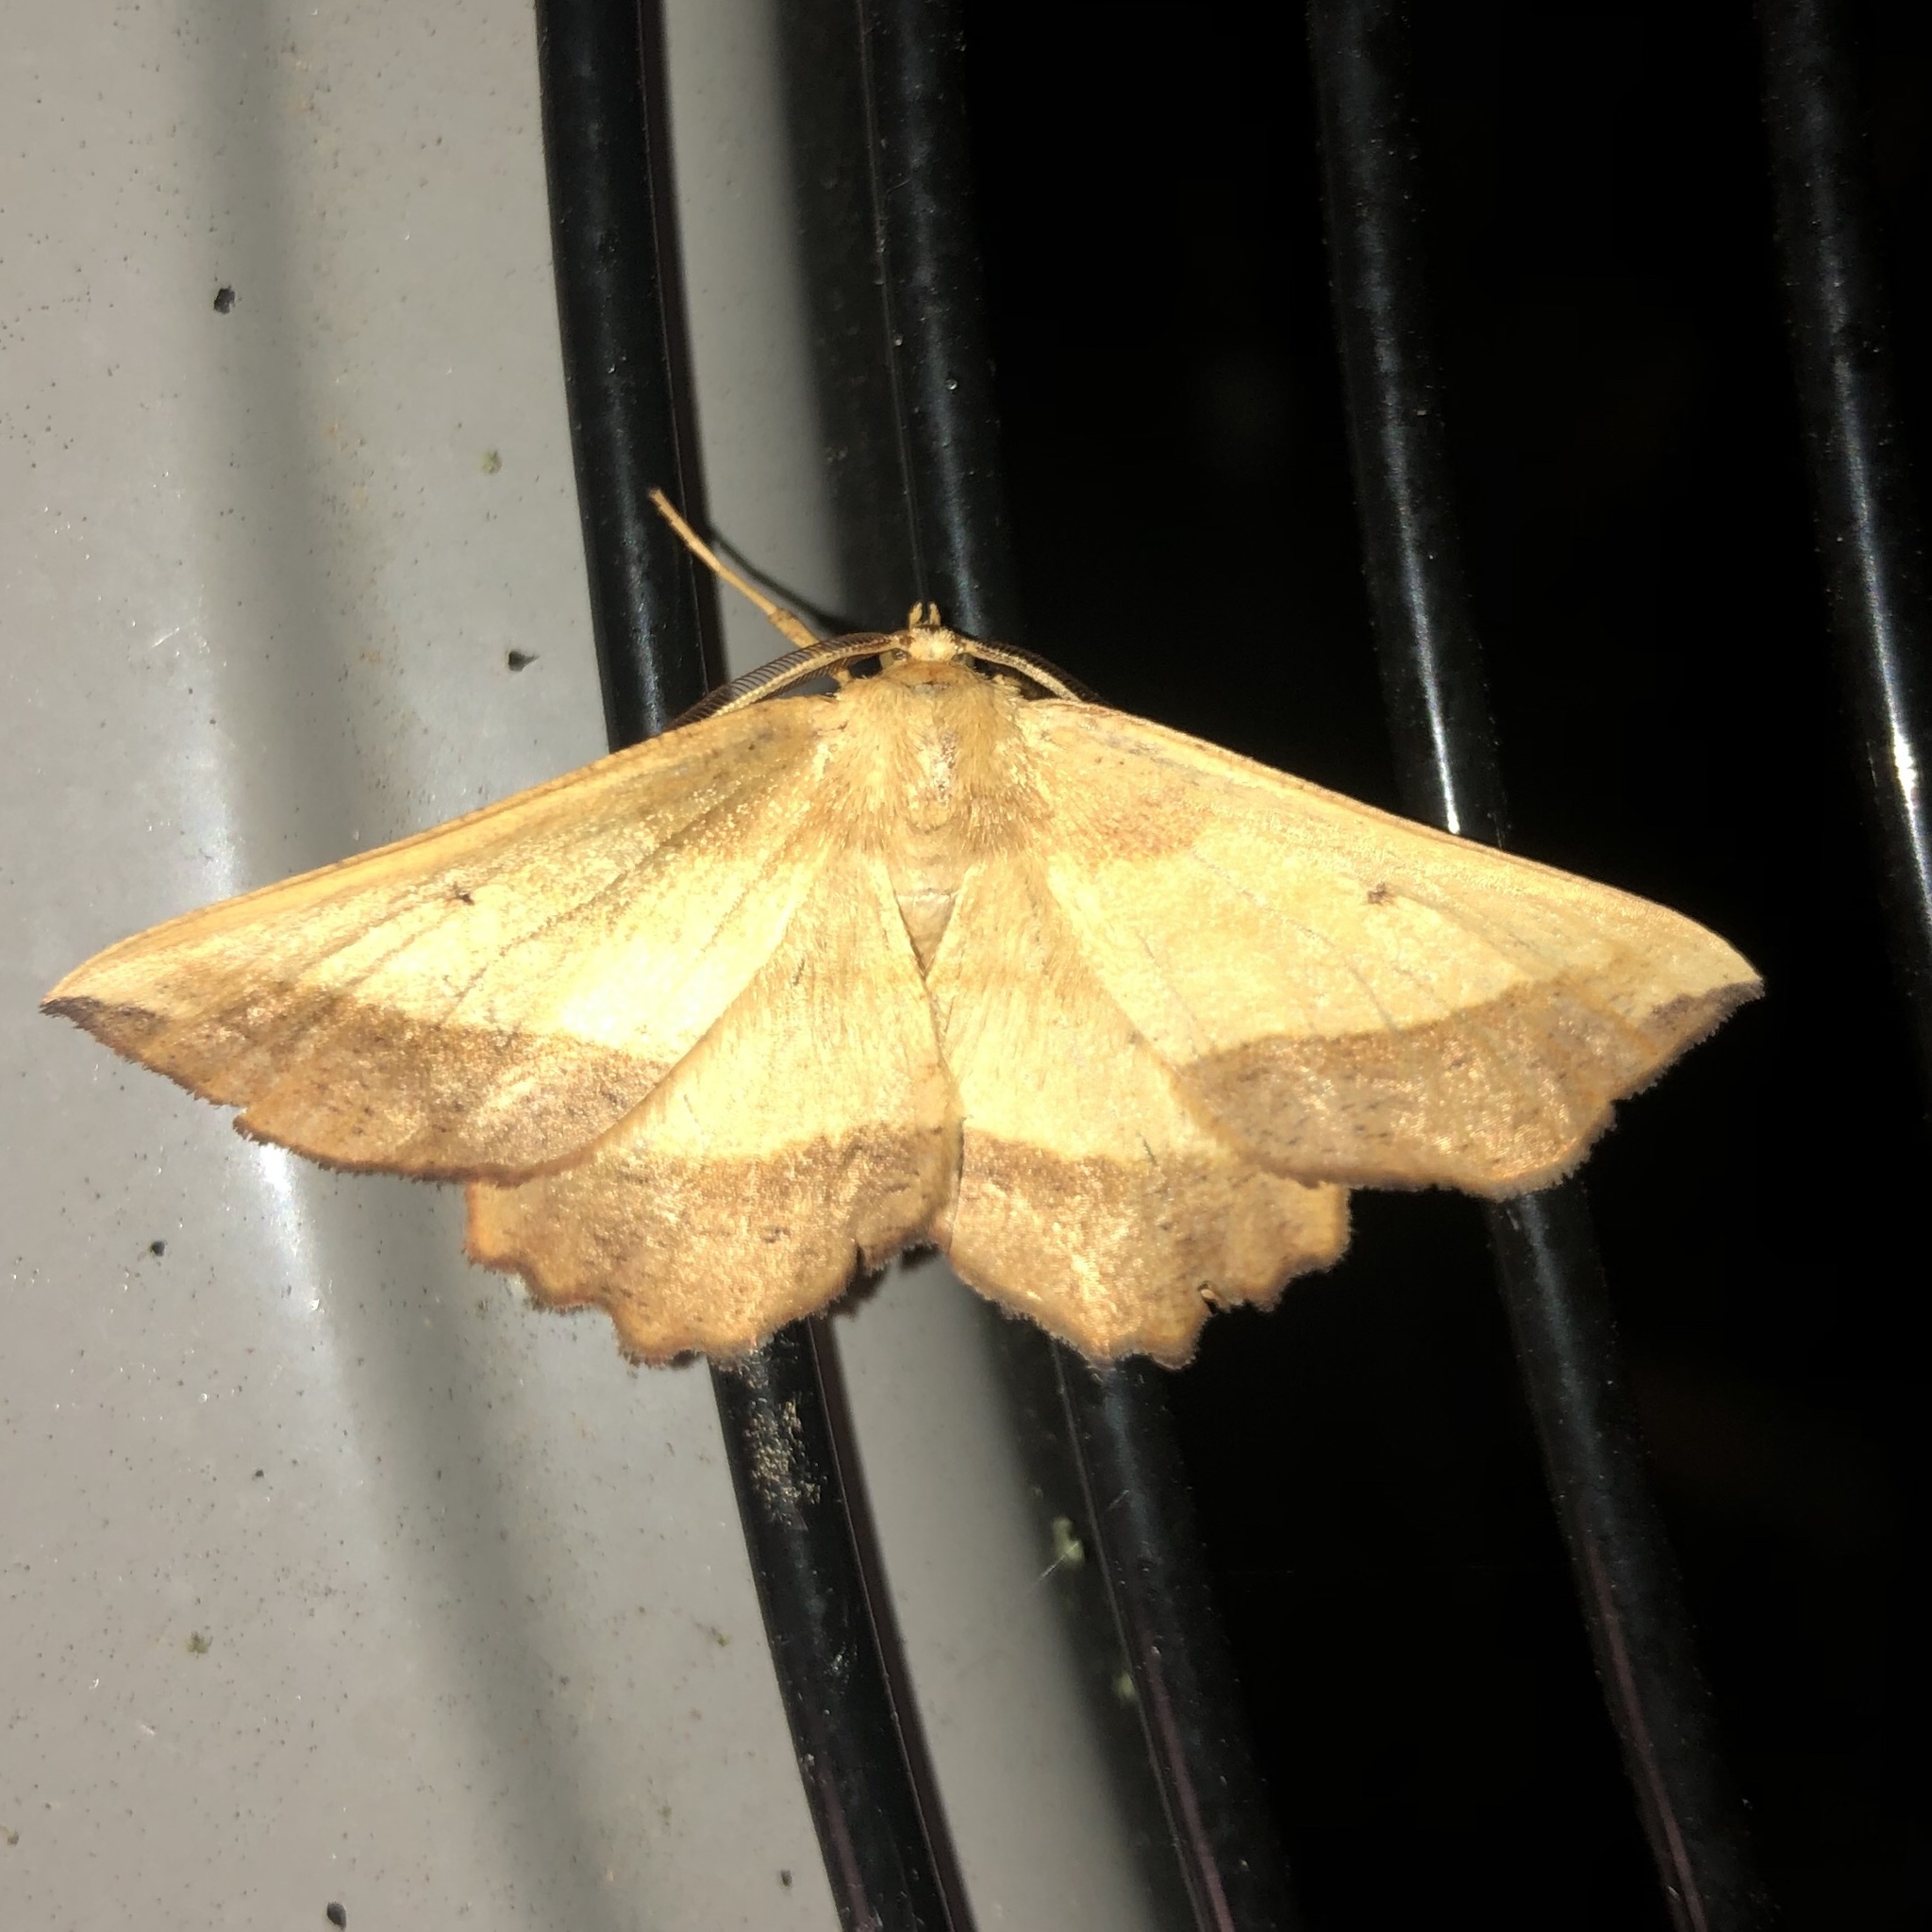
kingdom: Animalia
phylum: Arthropoda
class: Insecta
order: Lepidoptera
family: Geometridae
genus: Euchlaena
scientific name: Euchlaena serrata
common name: Saw wing
